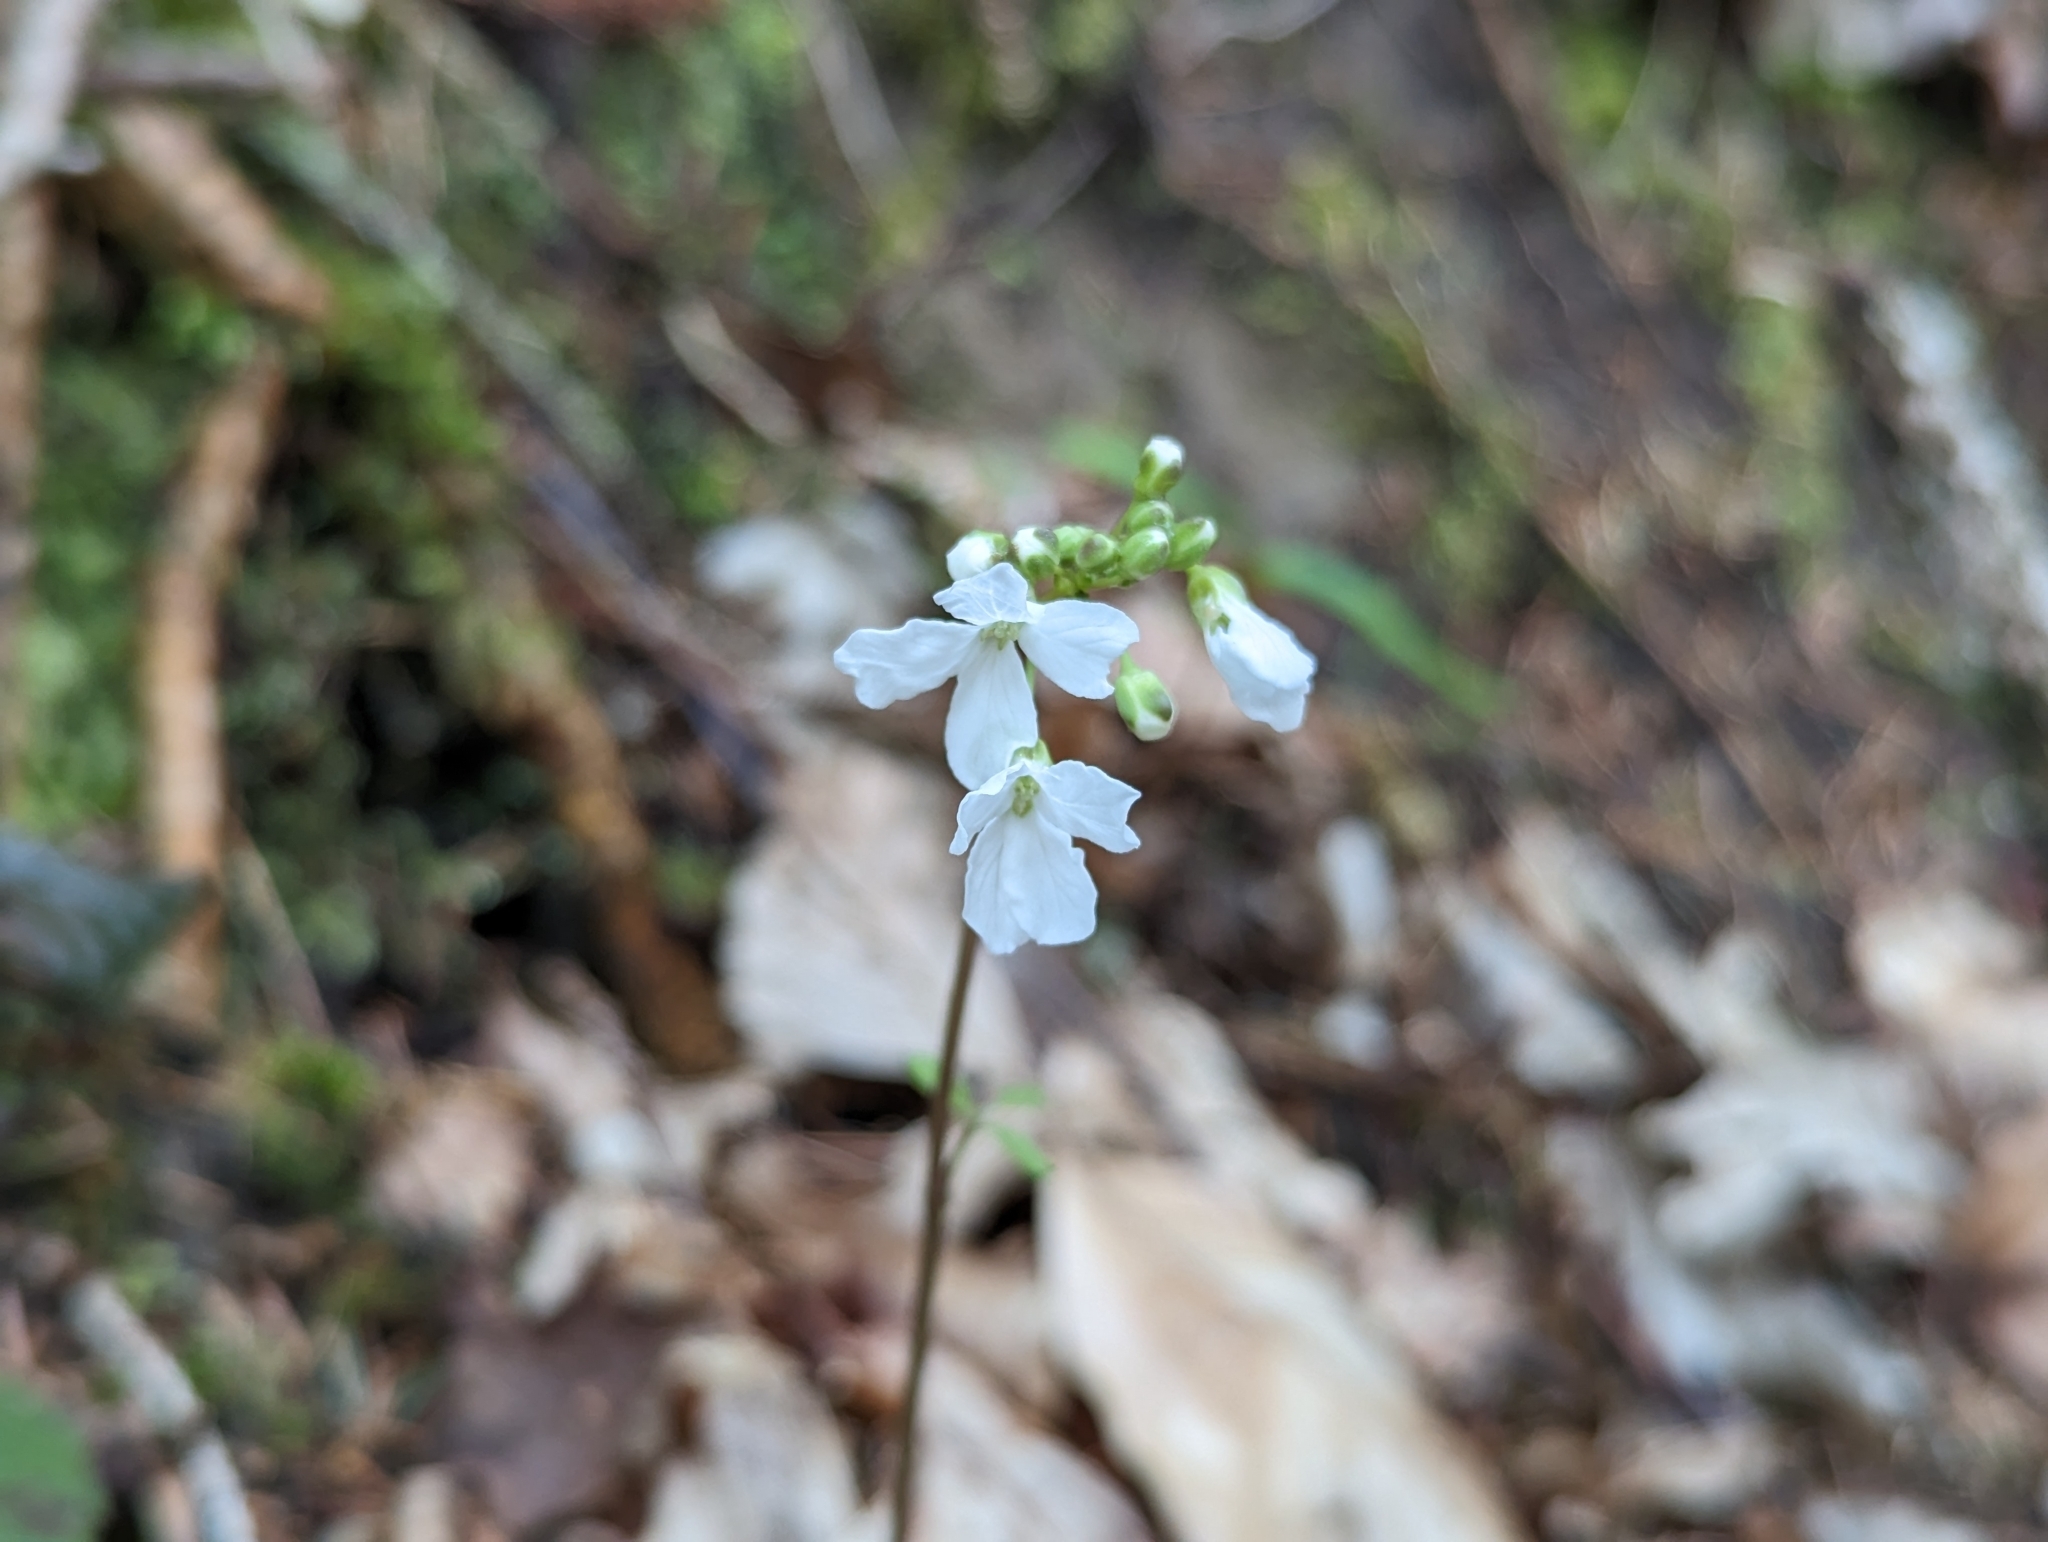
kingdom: Plantae
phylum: Tracheophyta
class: Magnoliopsida
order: Brassicales
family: Brassicaceae
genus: Cardamine
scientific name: Cardamine trifolia
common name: Trefoil cress
